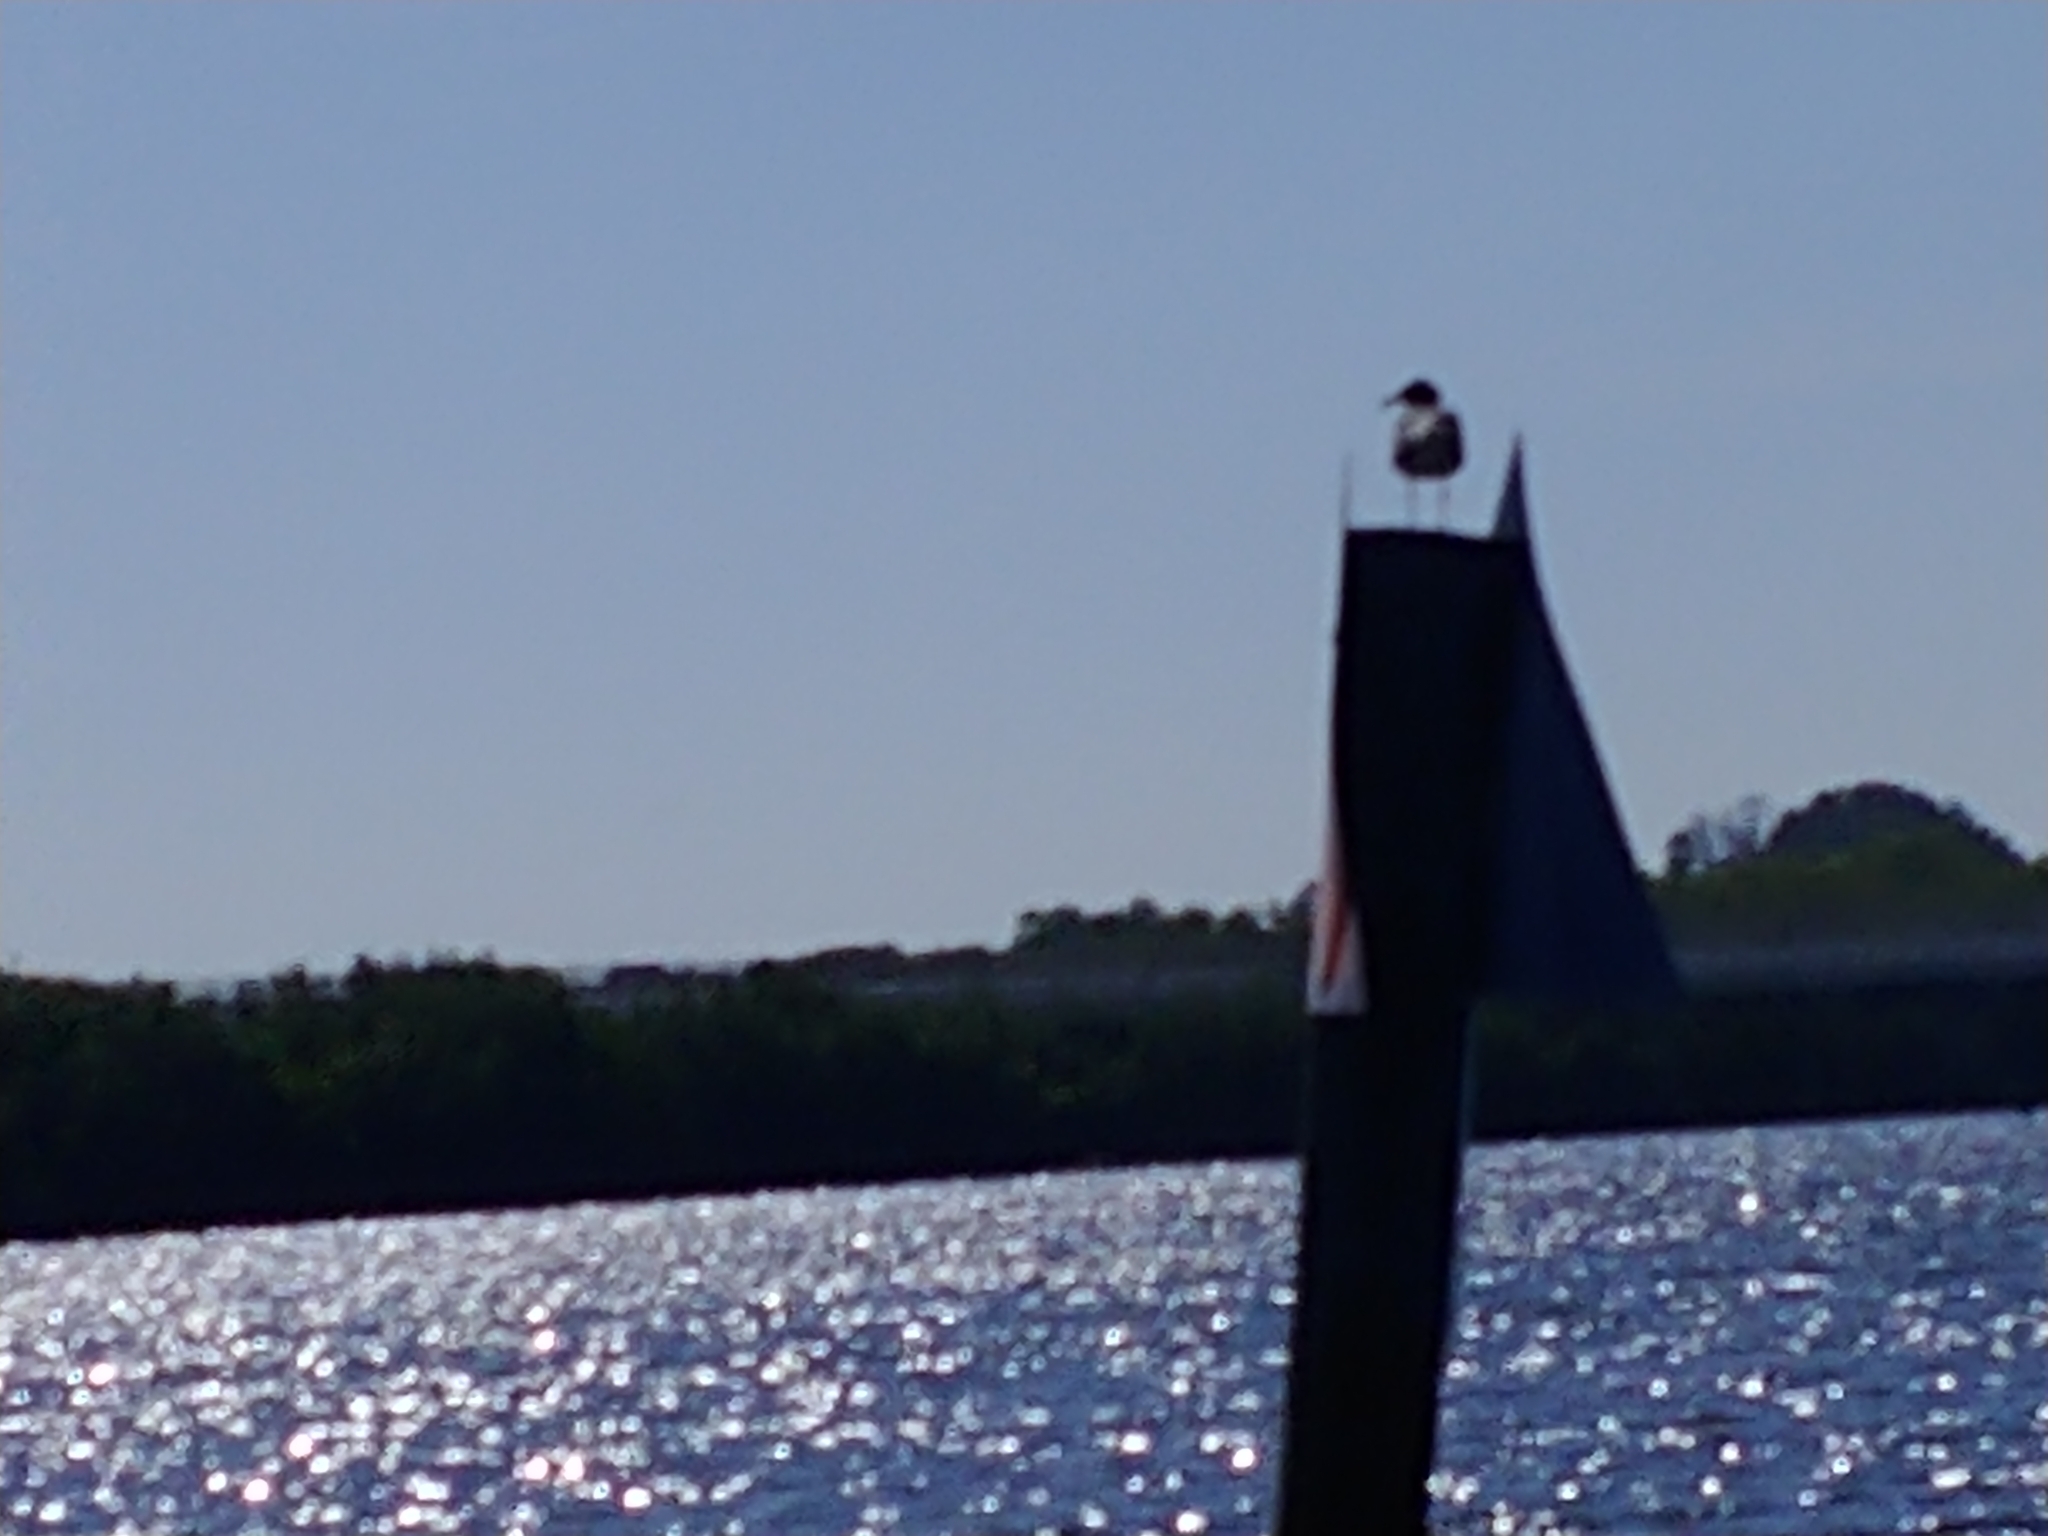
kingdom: Animalia
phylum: Chordata
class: Aves
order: Charadriiformes
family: Laridae
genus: Leucophaeus
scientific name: Leucophaeus atricilla
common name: Laughing gull
